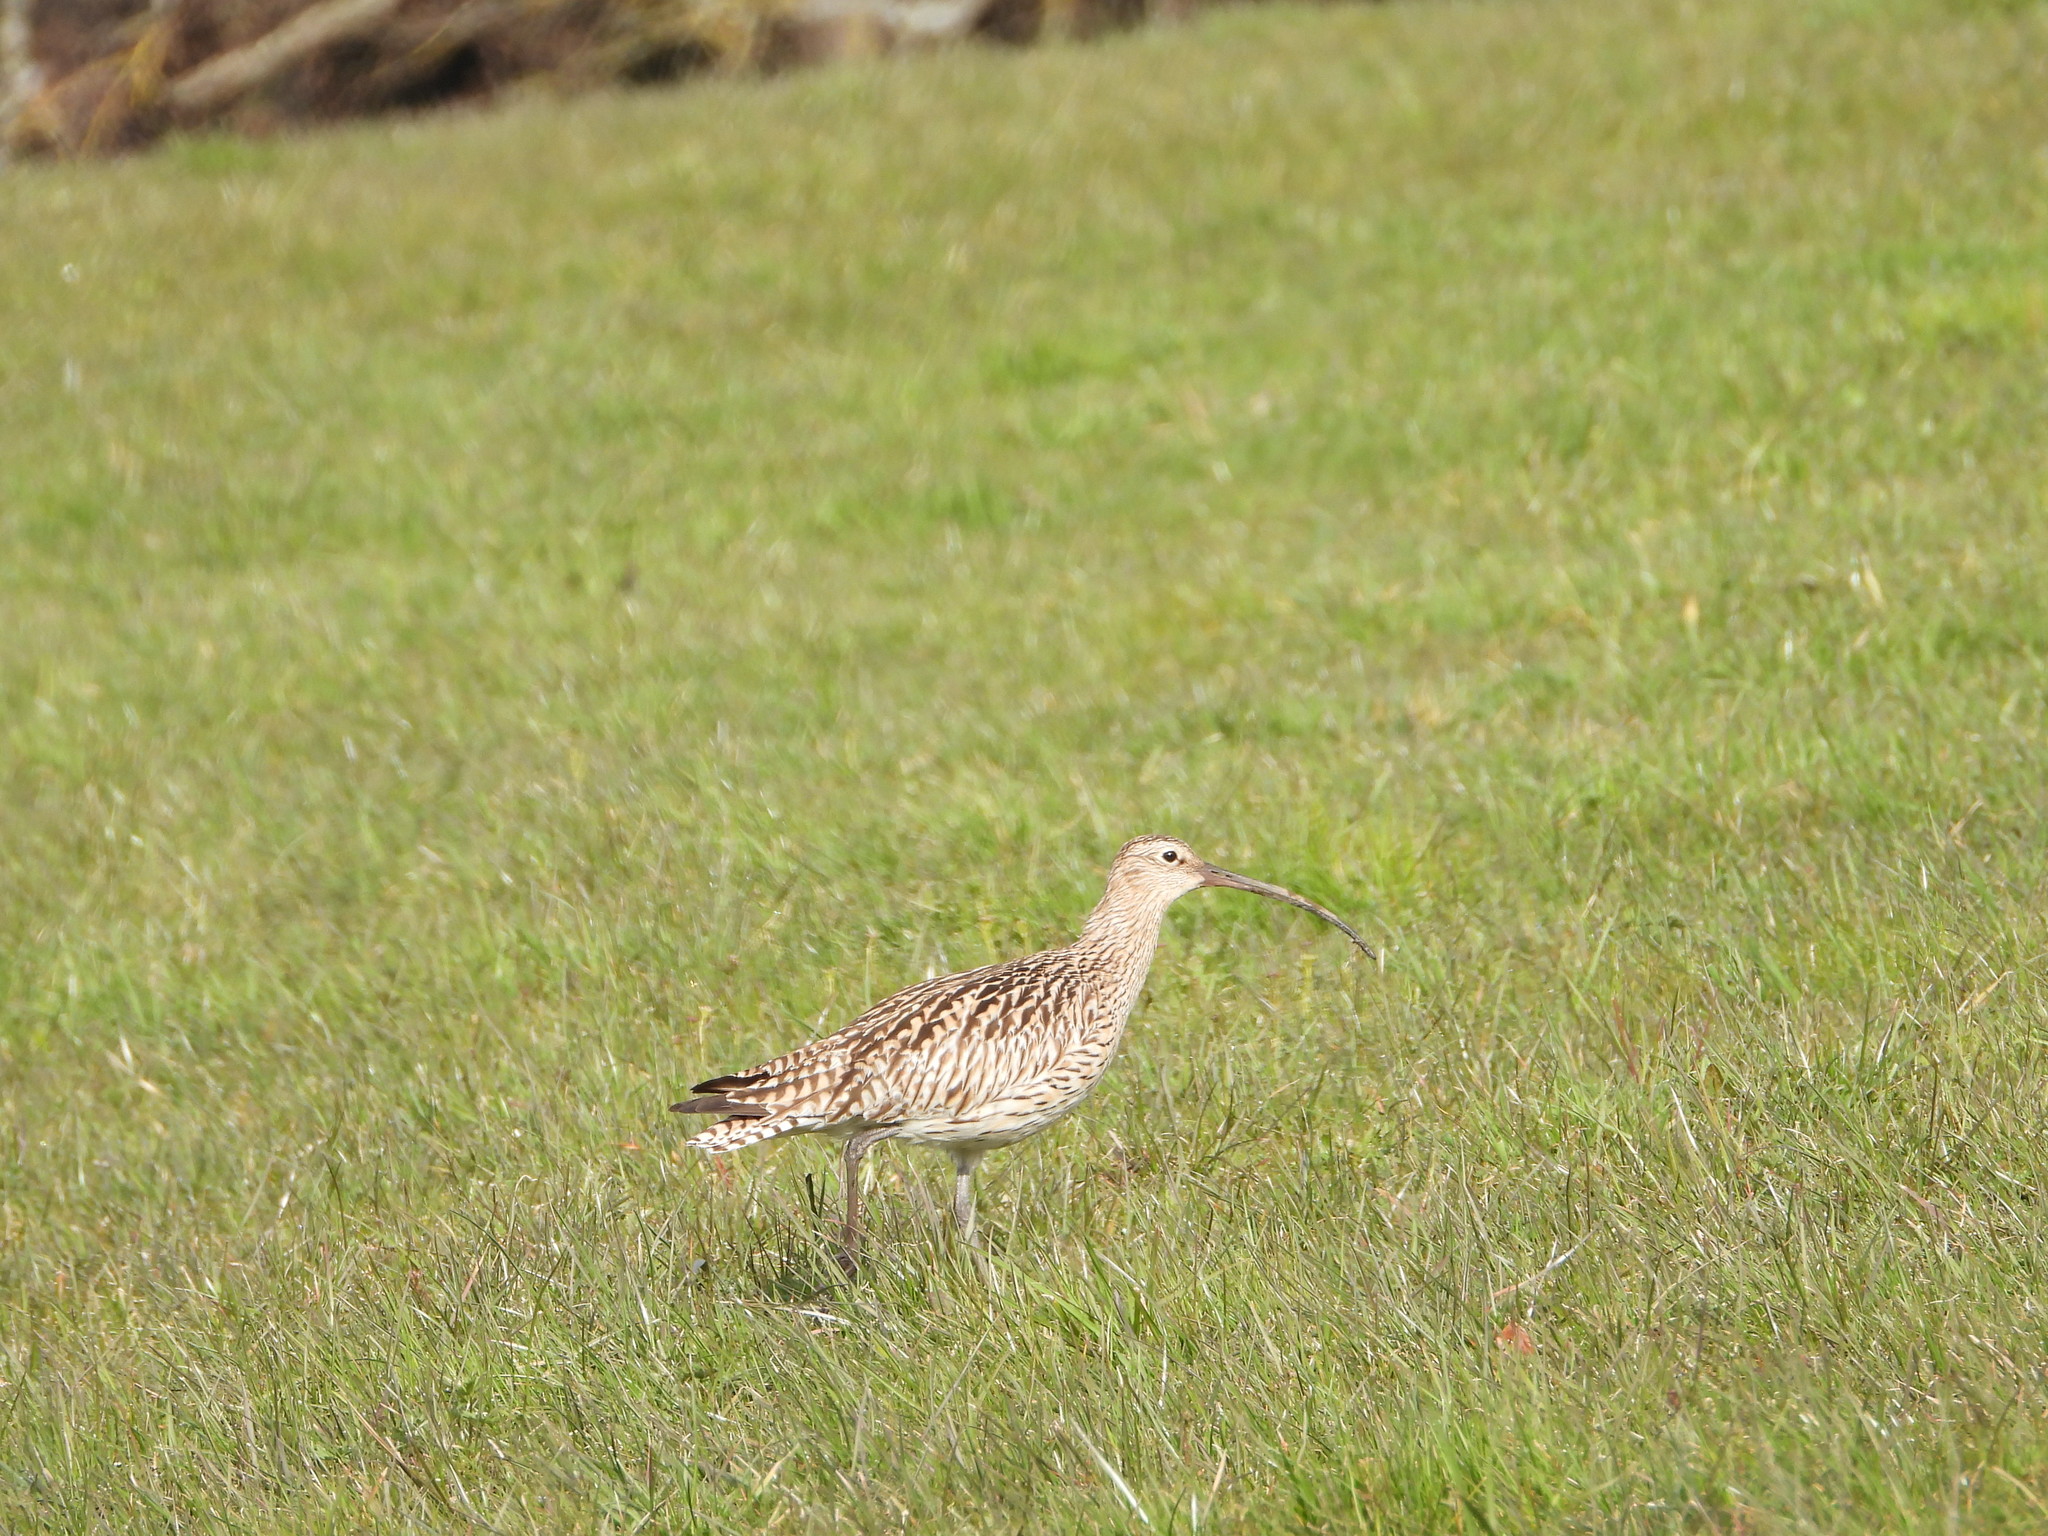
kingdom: Animalia
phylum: Chordata
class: Aves
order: Charadriiformes
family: Scolopacidae
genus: Numenius
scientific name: Numenius arquata
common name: Eurasian curlew
